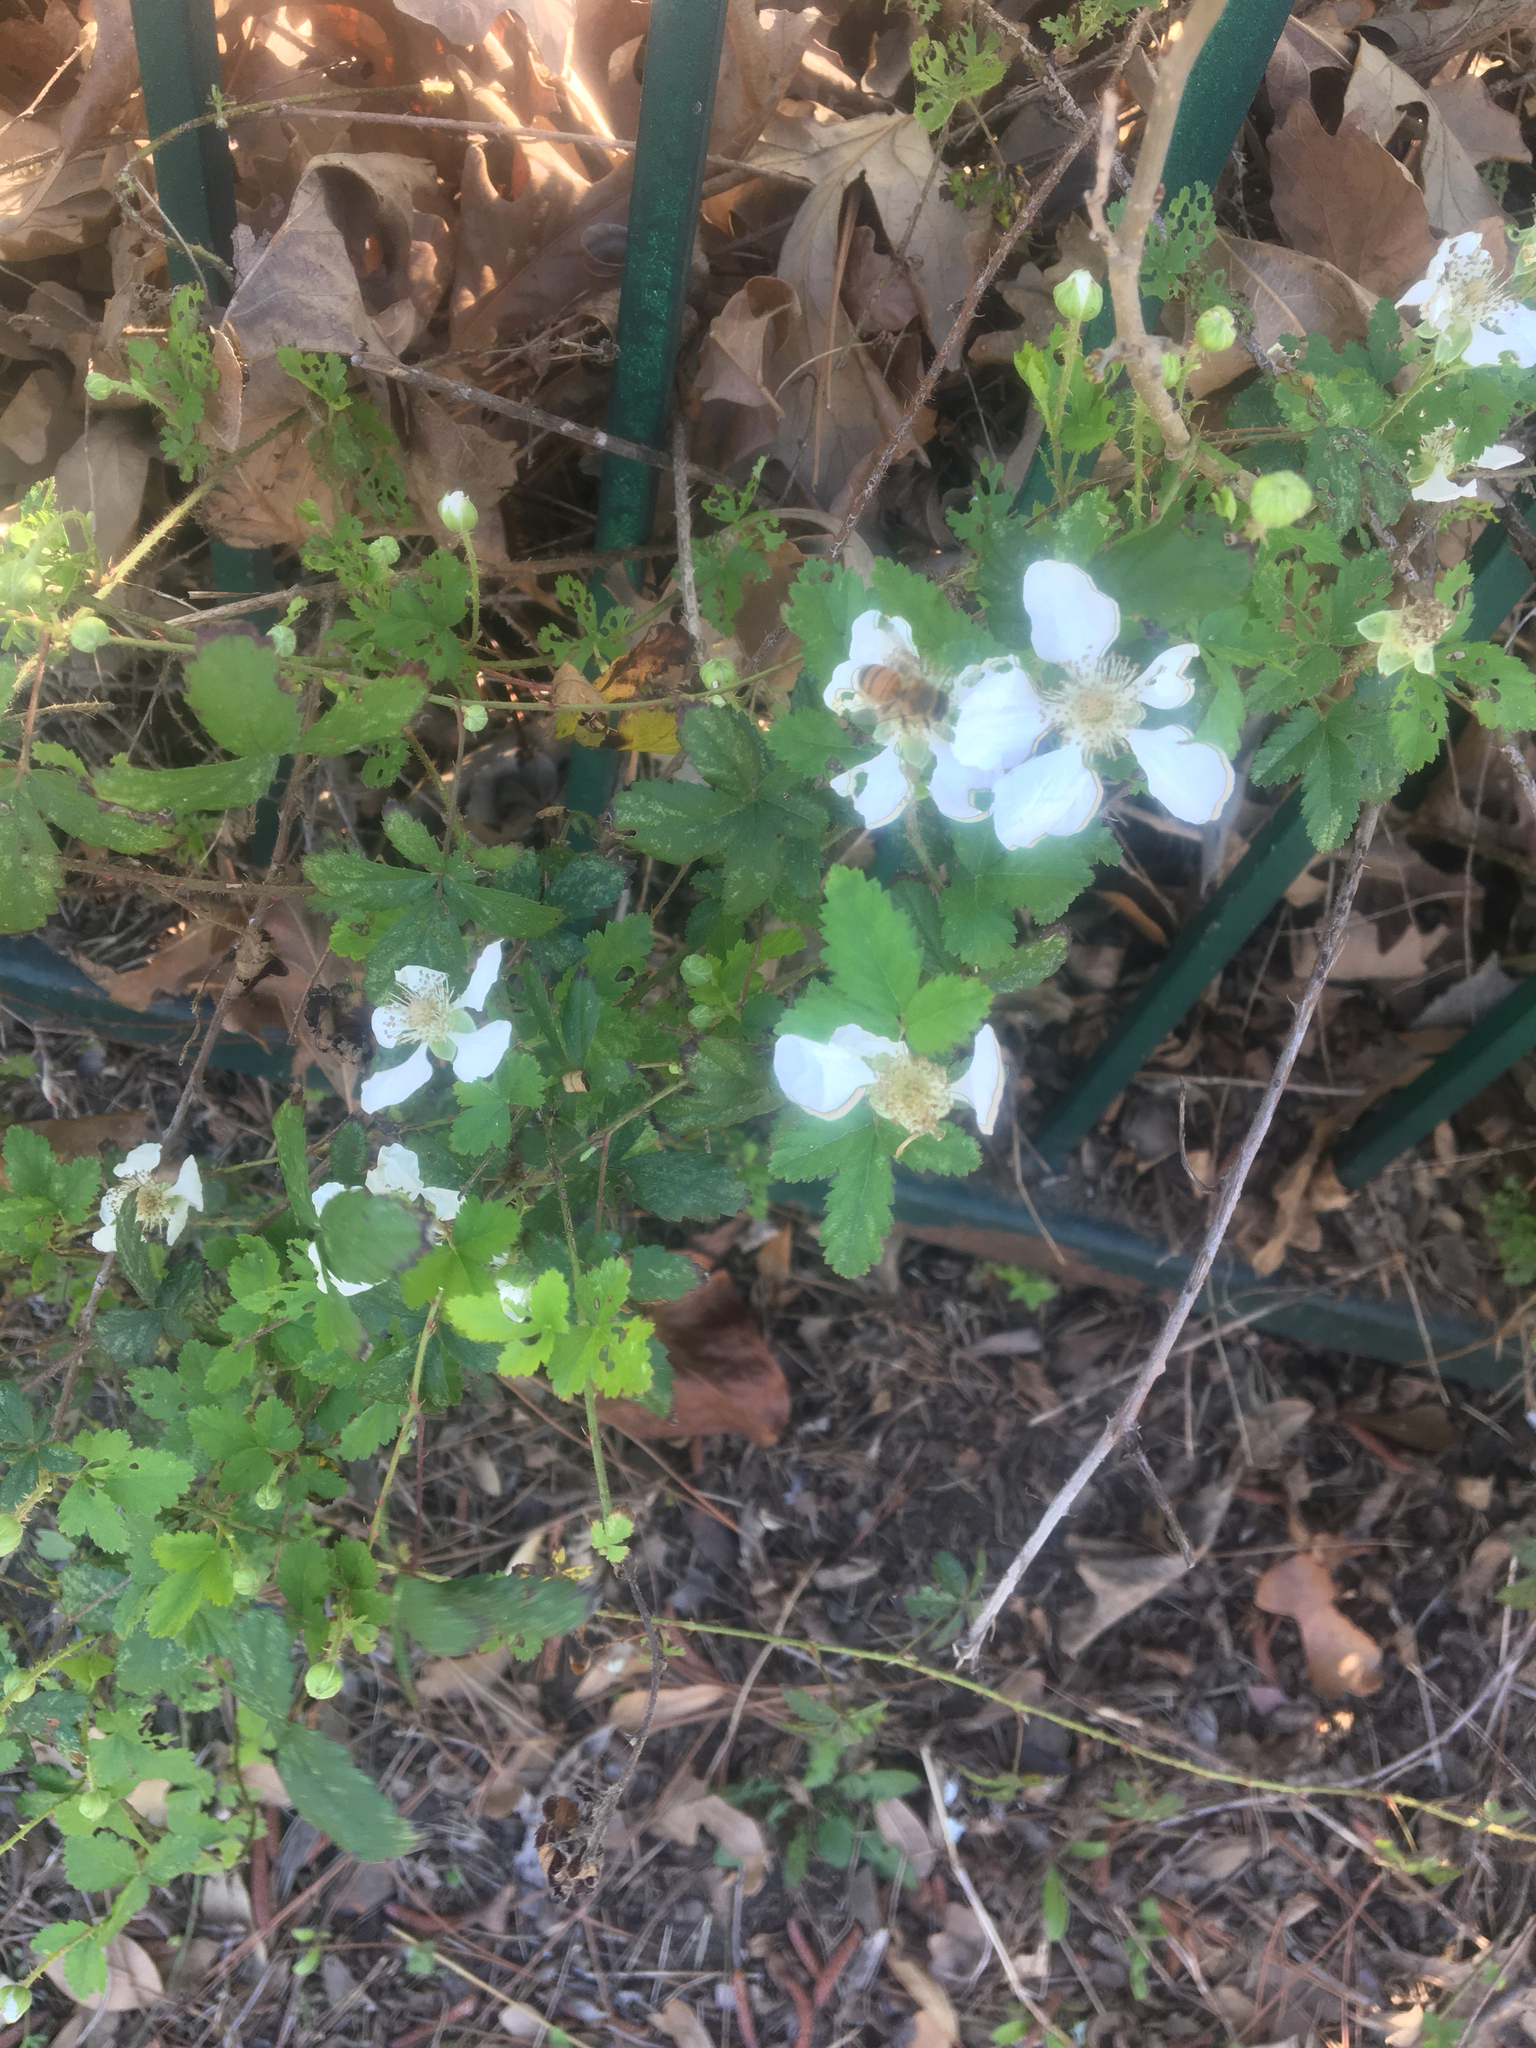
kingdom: Plantae
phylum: Tracheophyta
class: Magnoliopsida
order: Rosales
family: Rosaceae
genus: Rubus
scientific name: Rubus trivialis
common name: Southern dewberry
